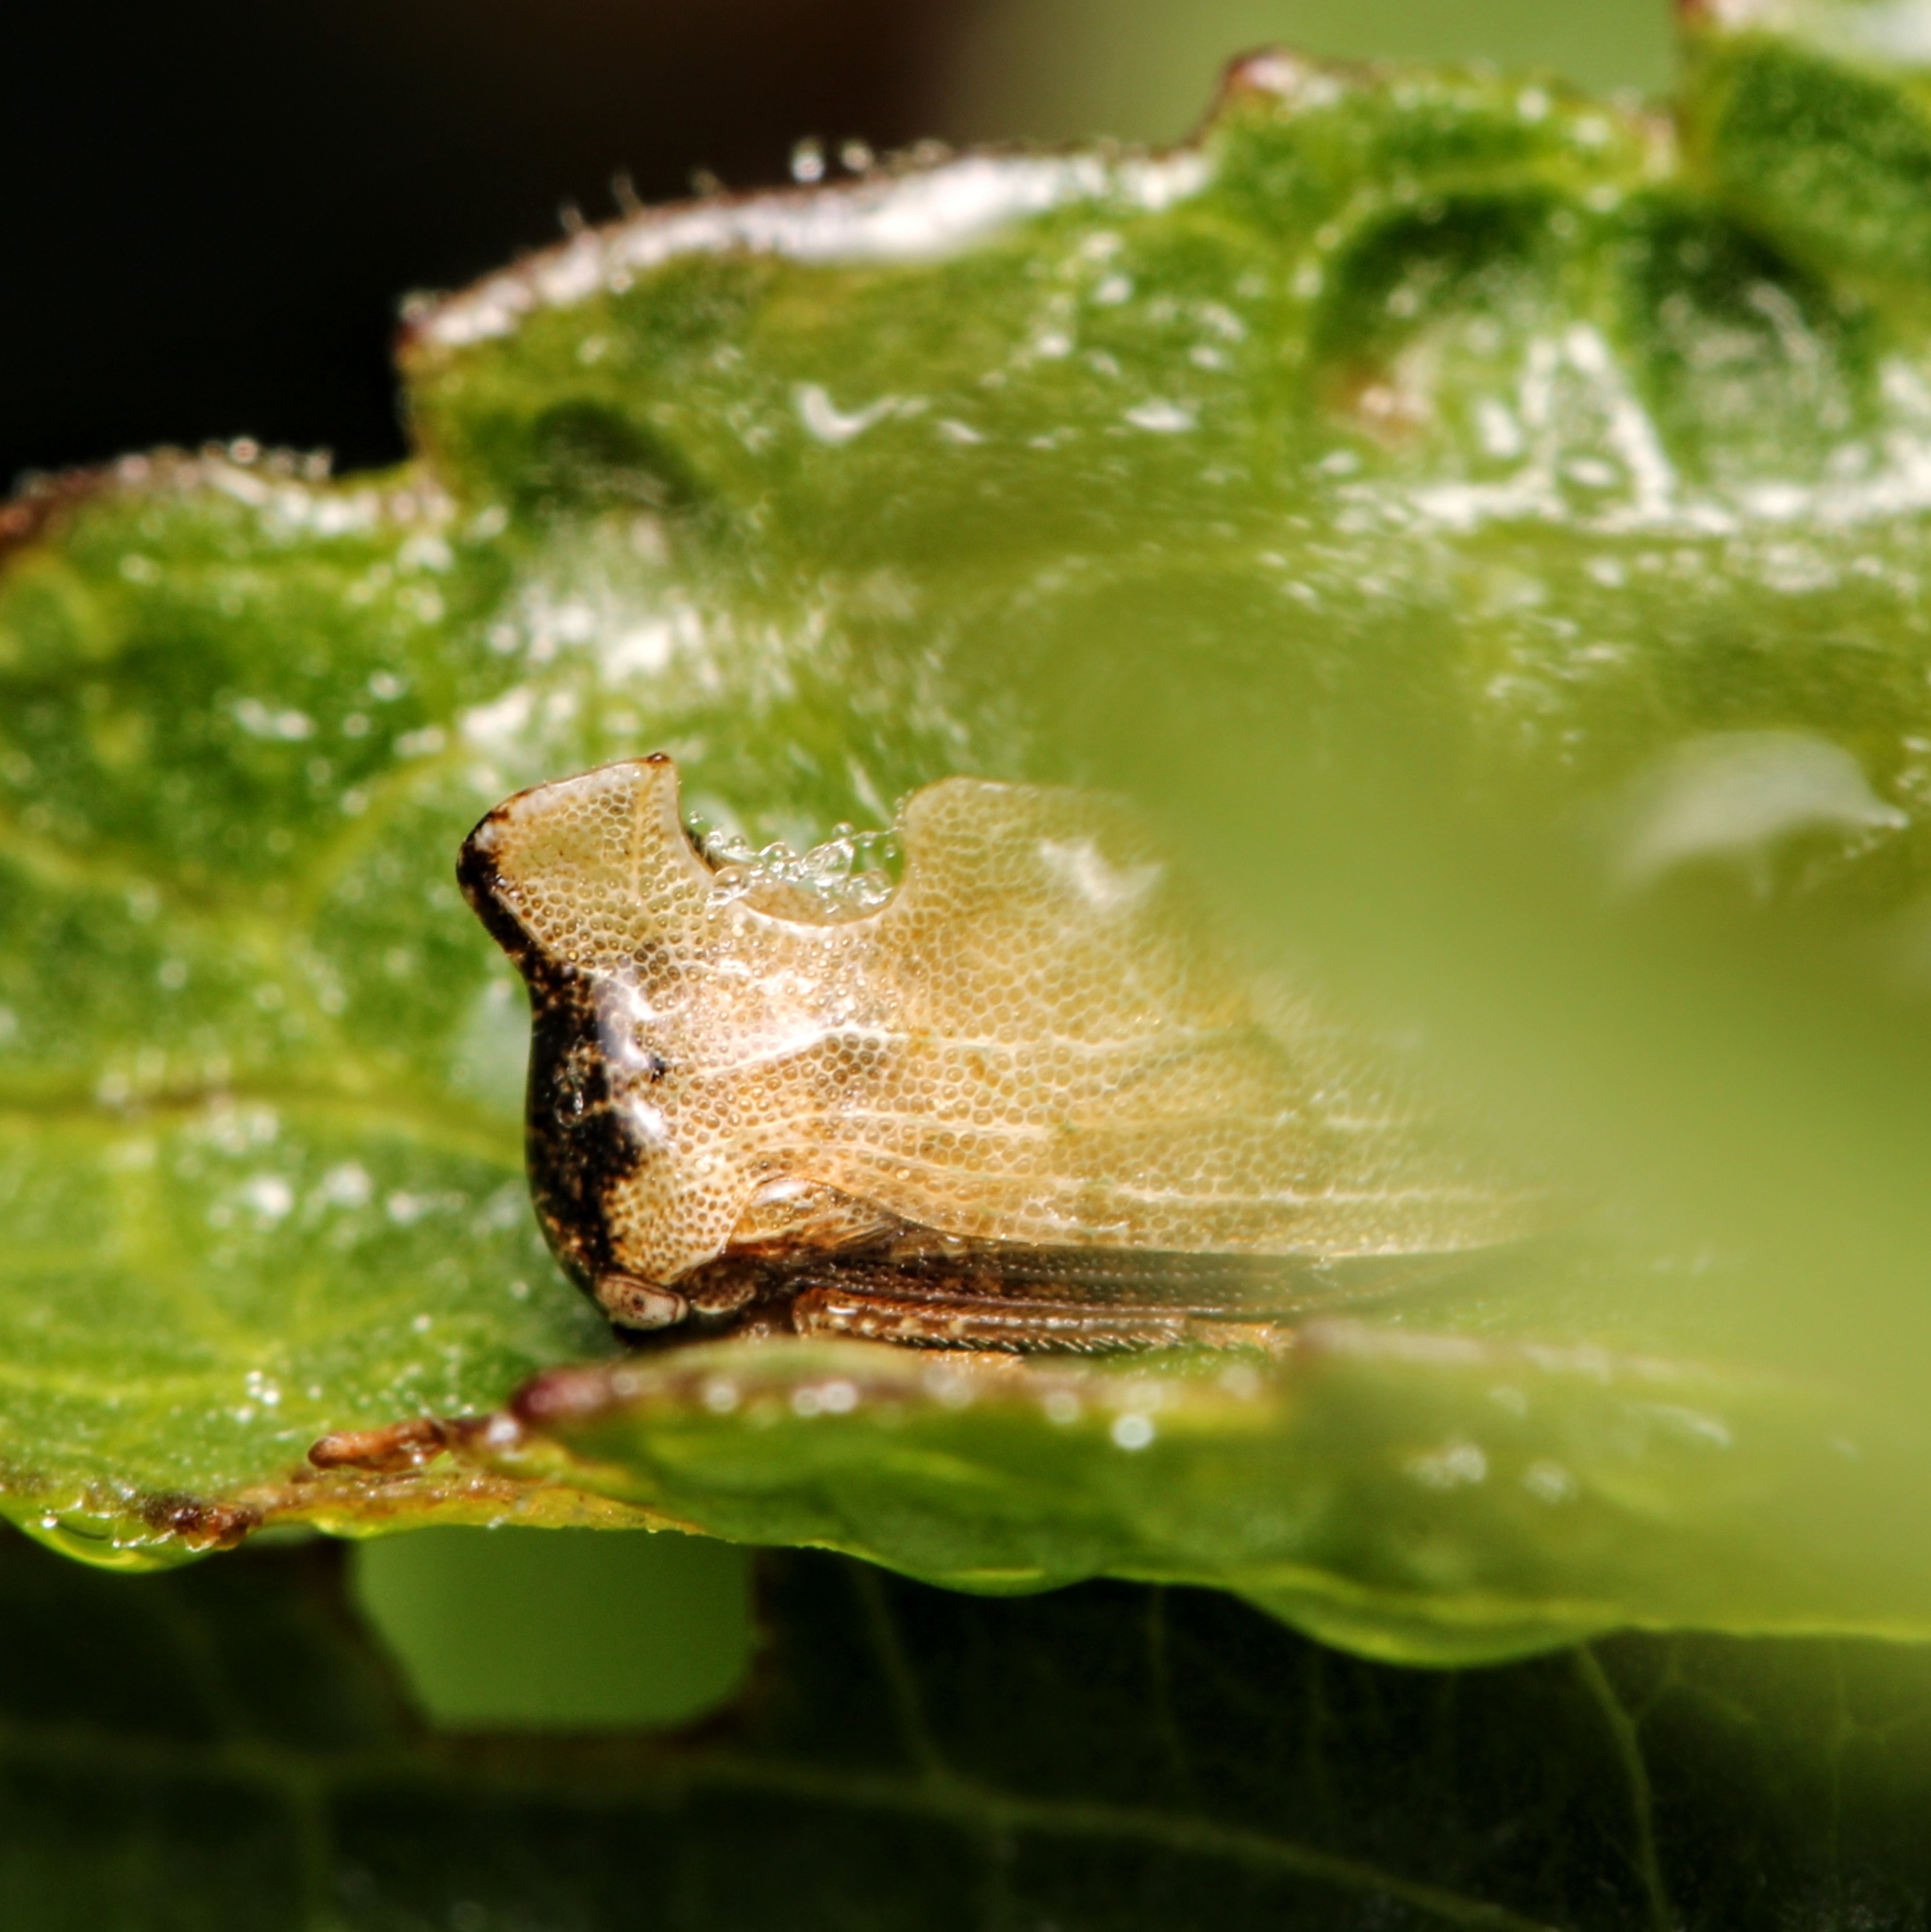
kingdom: Animalia
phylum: Arthropoda
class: Insecta
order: Hemiptera
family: Membracidae
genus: Entylia
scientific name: Entylia carinata
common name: Keeled treehopper
